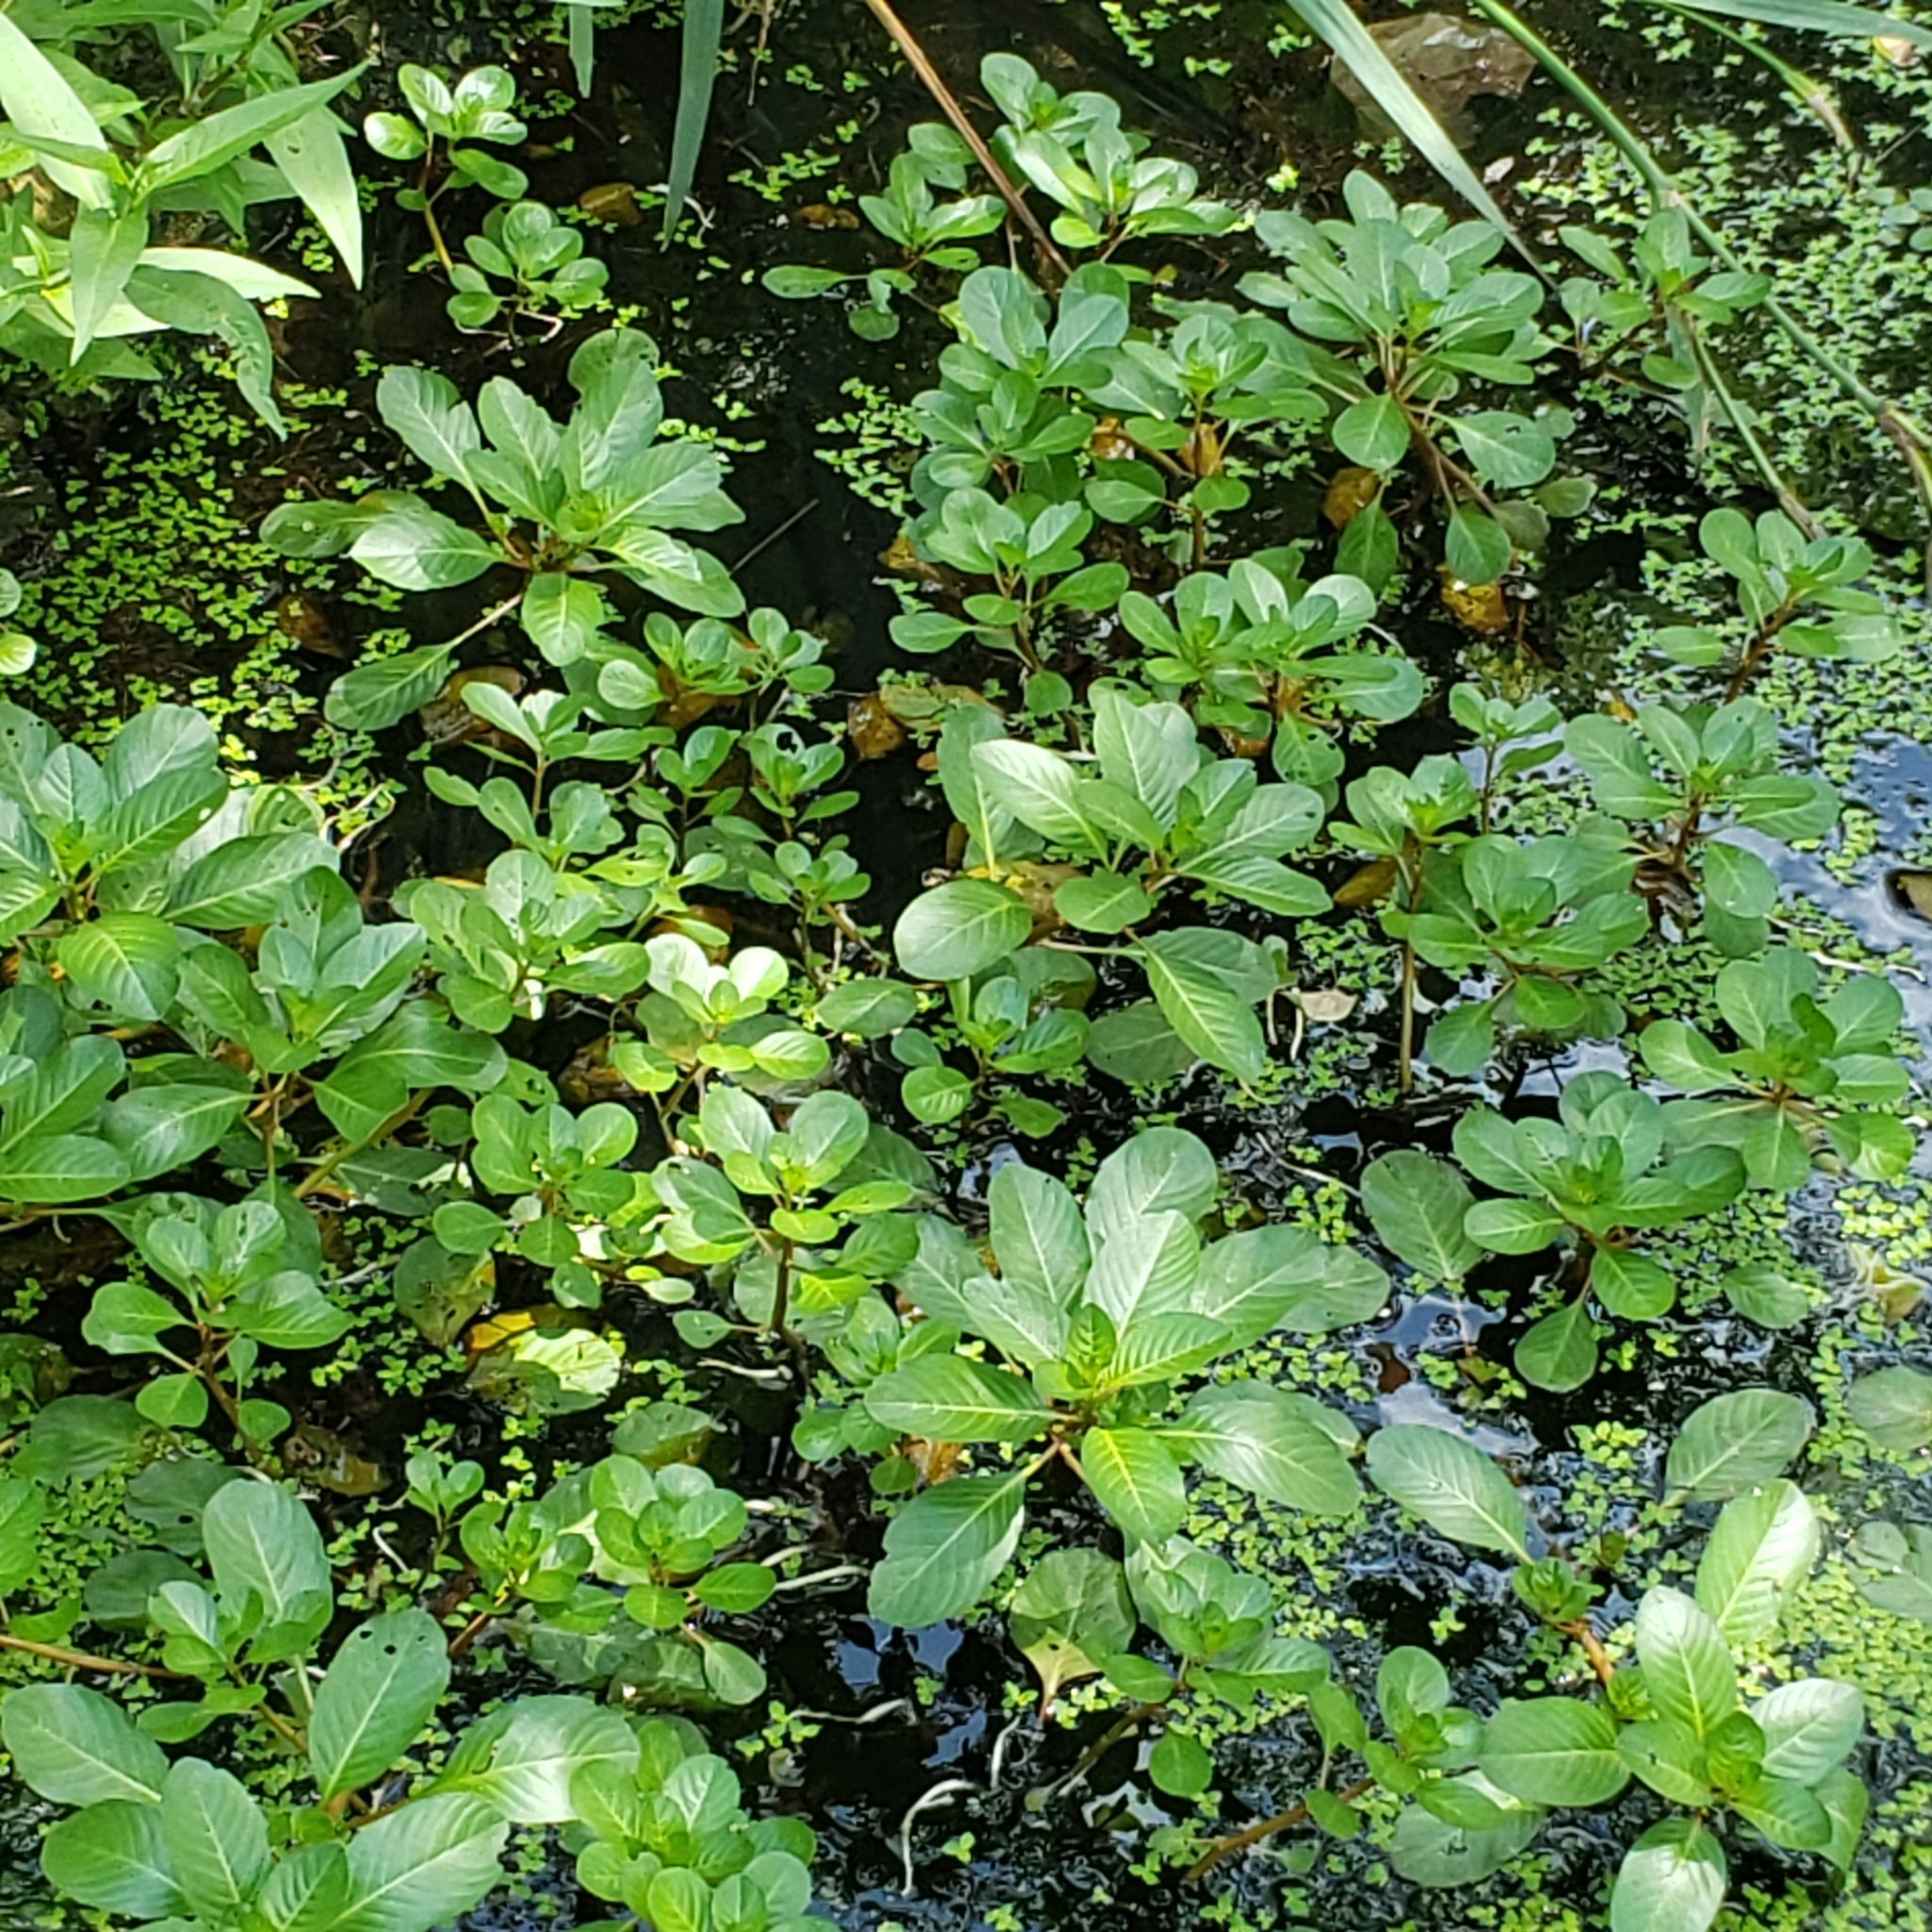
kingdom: Plantae
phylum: Tracheophyta
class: Magnoliopsida
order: Myrtales
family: Onagraceae
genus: Ludwigia
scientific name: Ludwigia peploides
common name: Floating primrose-willow
